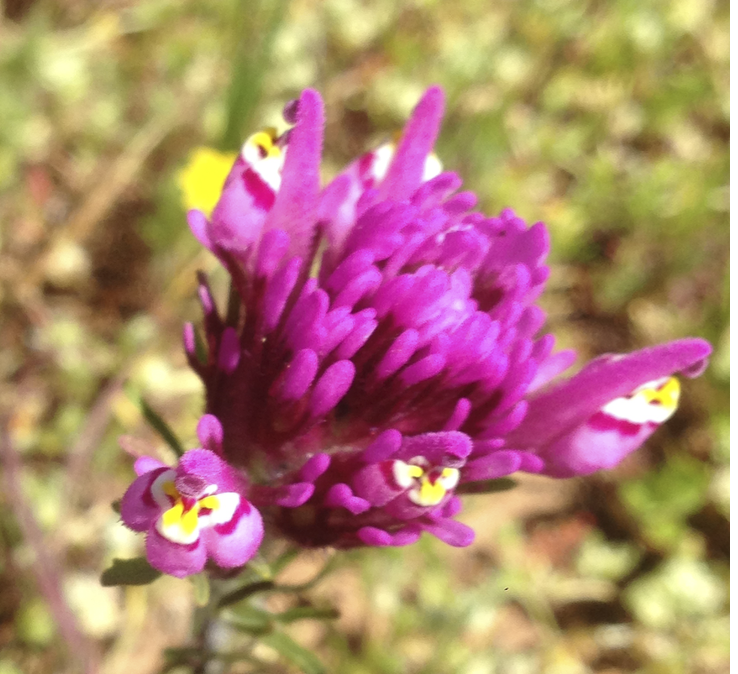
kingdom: Plantae
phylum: Tracheophyta
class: Magnoliopsida
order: Lamiales
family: Orobanchaceae
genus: Castilleja
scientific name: Castilleja exserta
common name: Purple owl-clover
